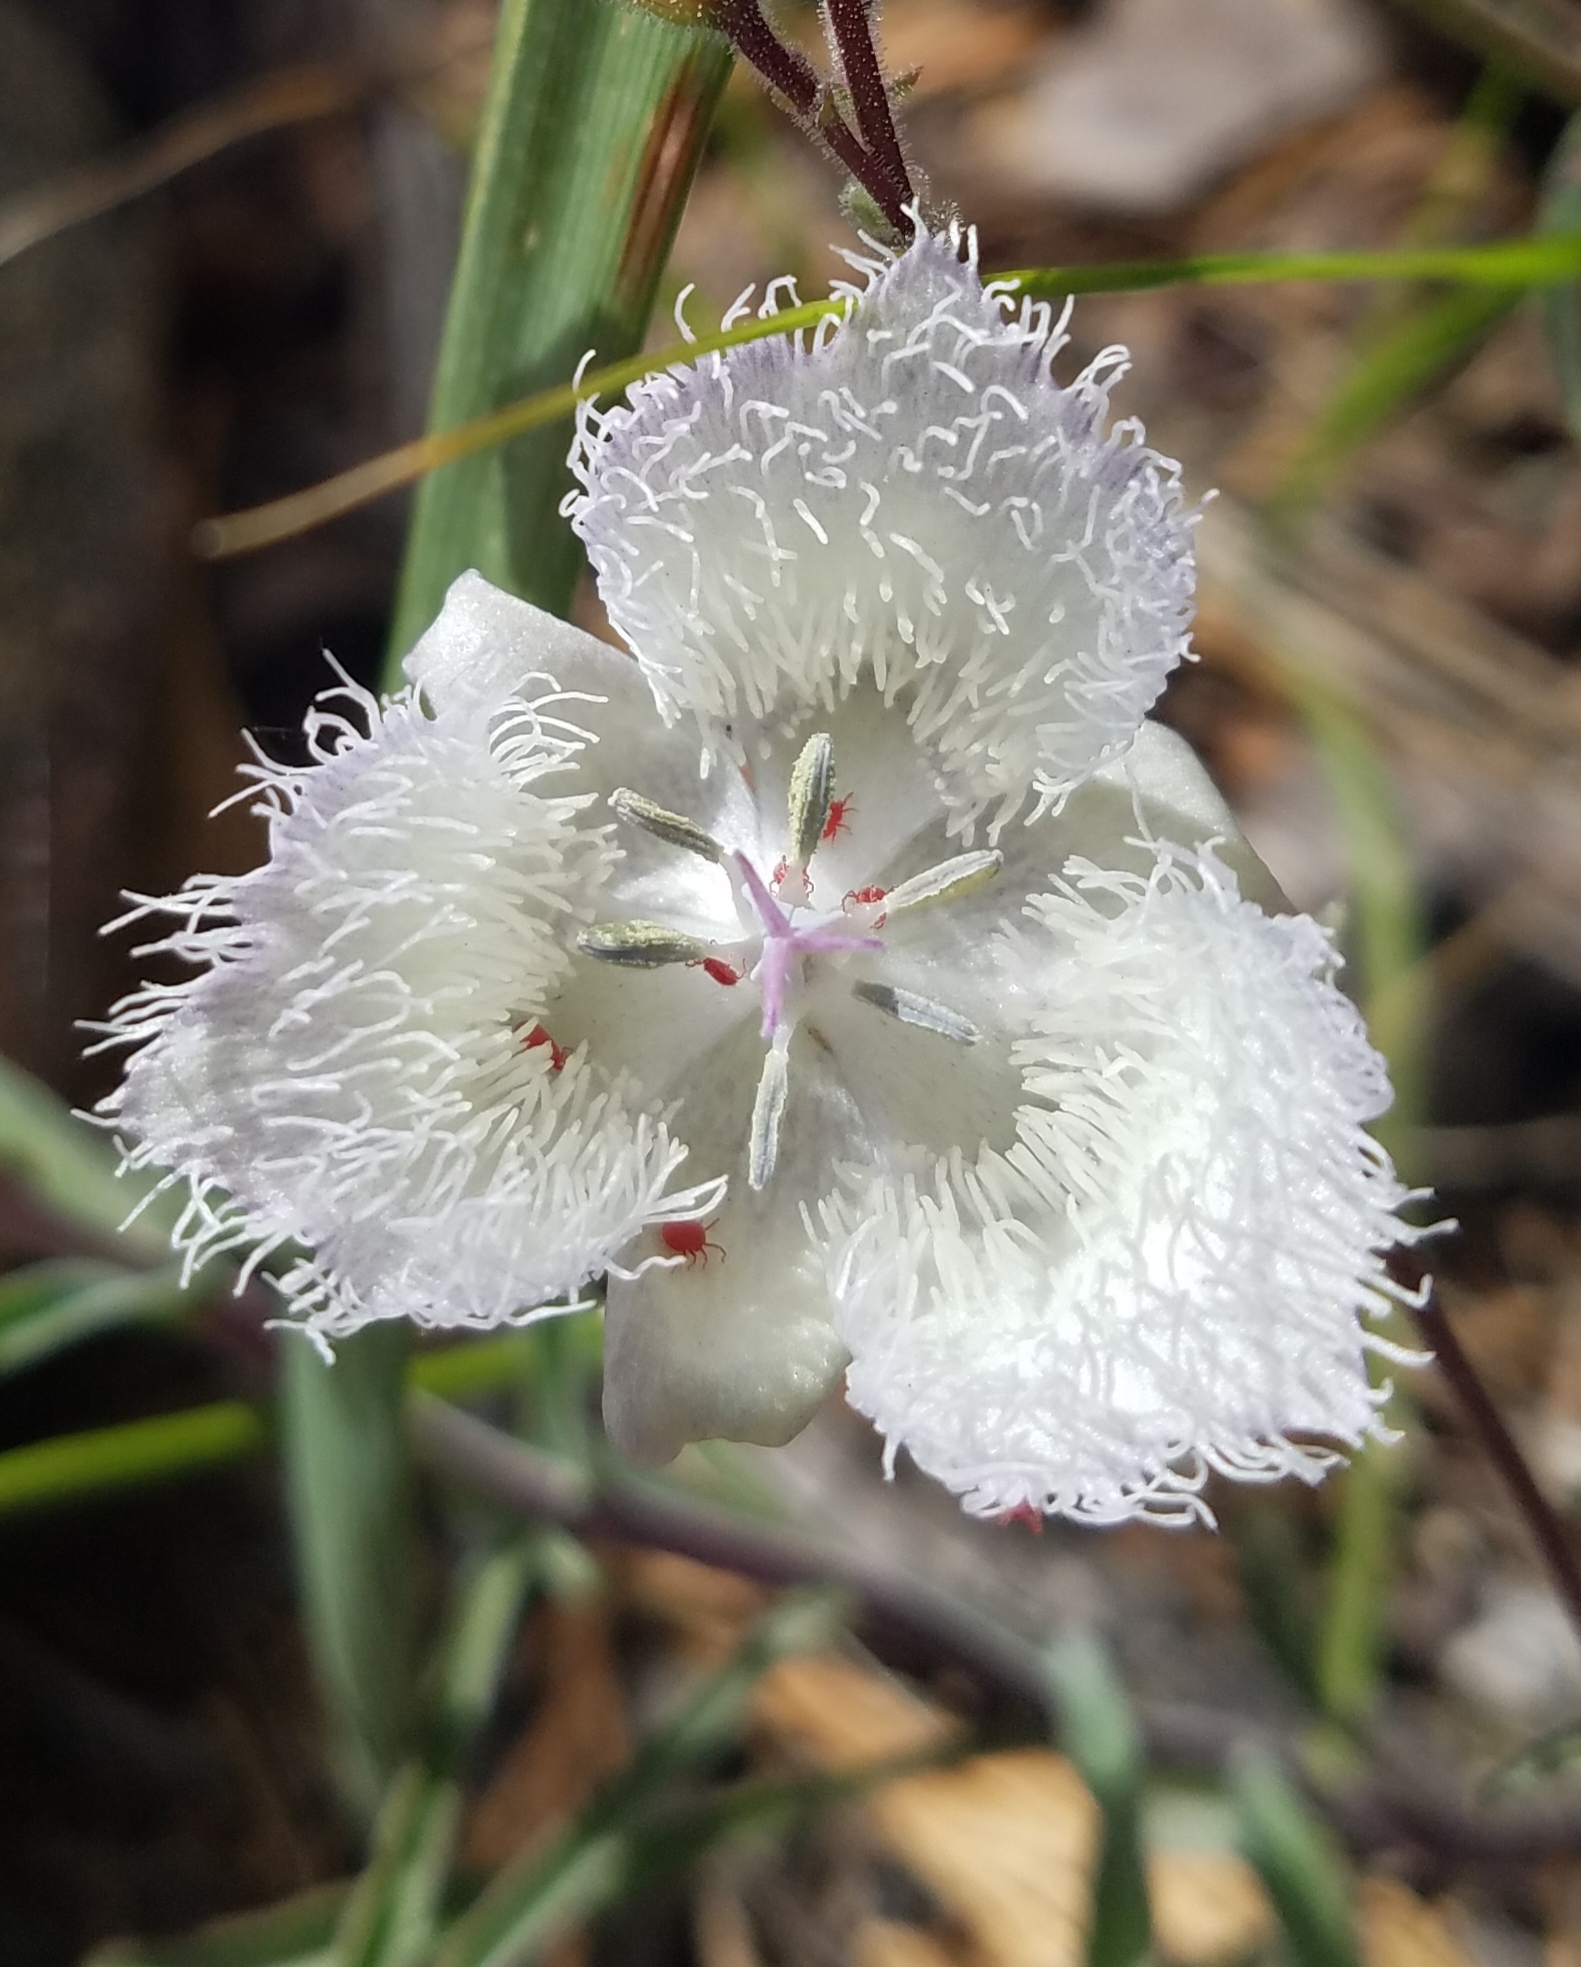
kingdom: Plantae
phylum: Tracheophyta
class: Liliopsida
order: Liliales
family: Liliaceae
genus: Calochortus
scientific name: Calochortus coeruleus
